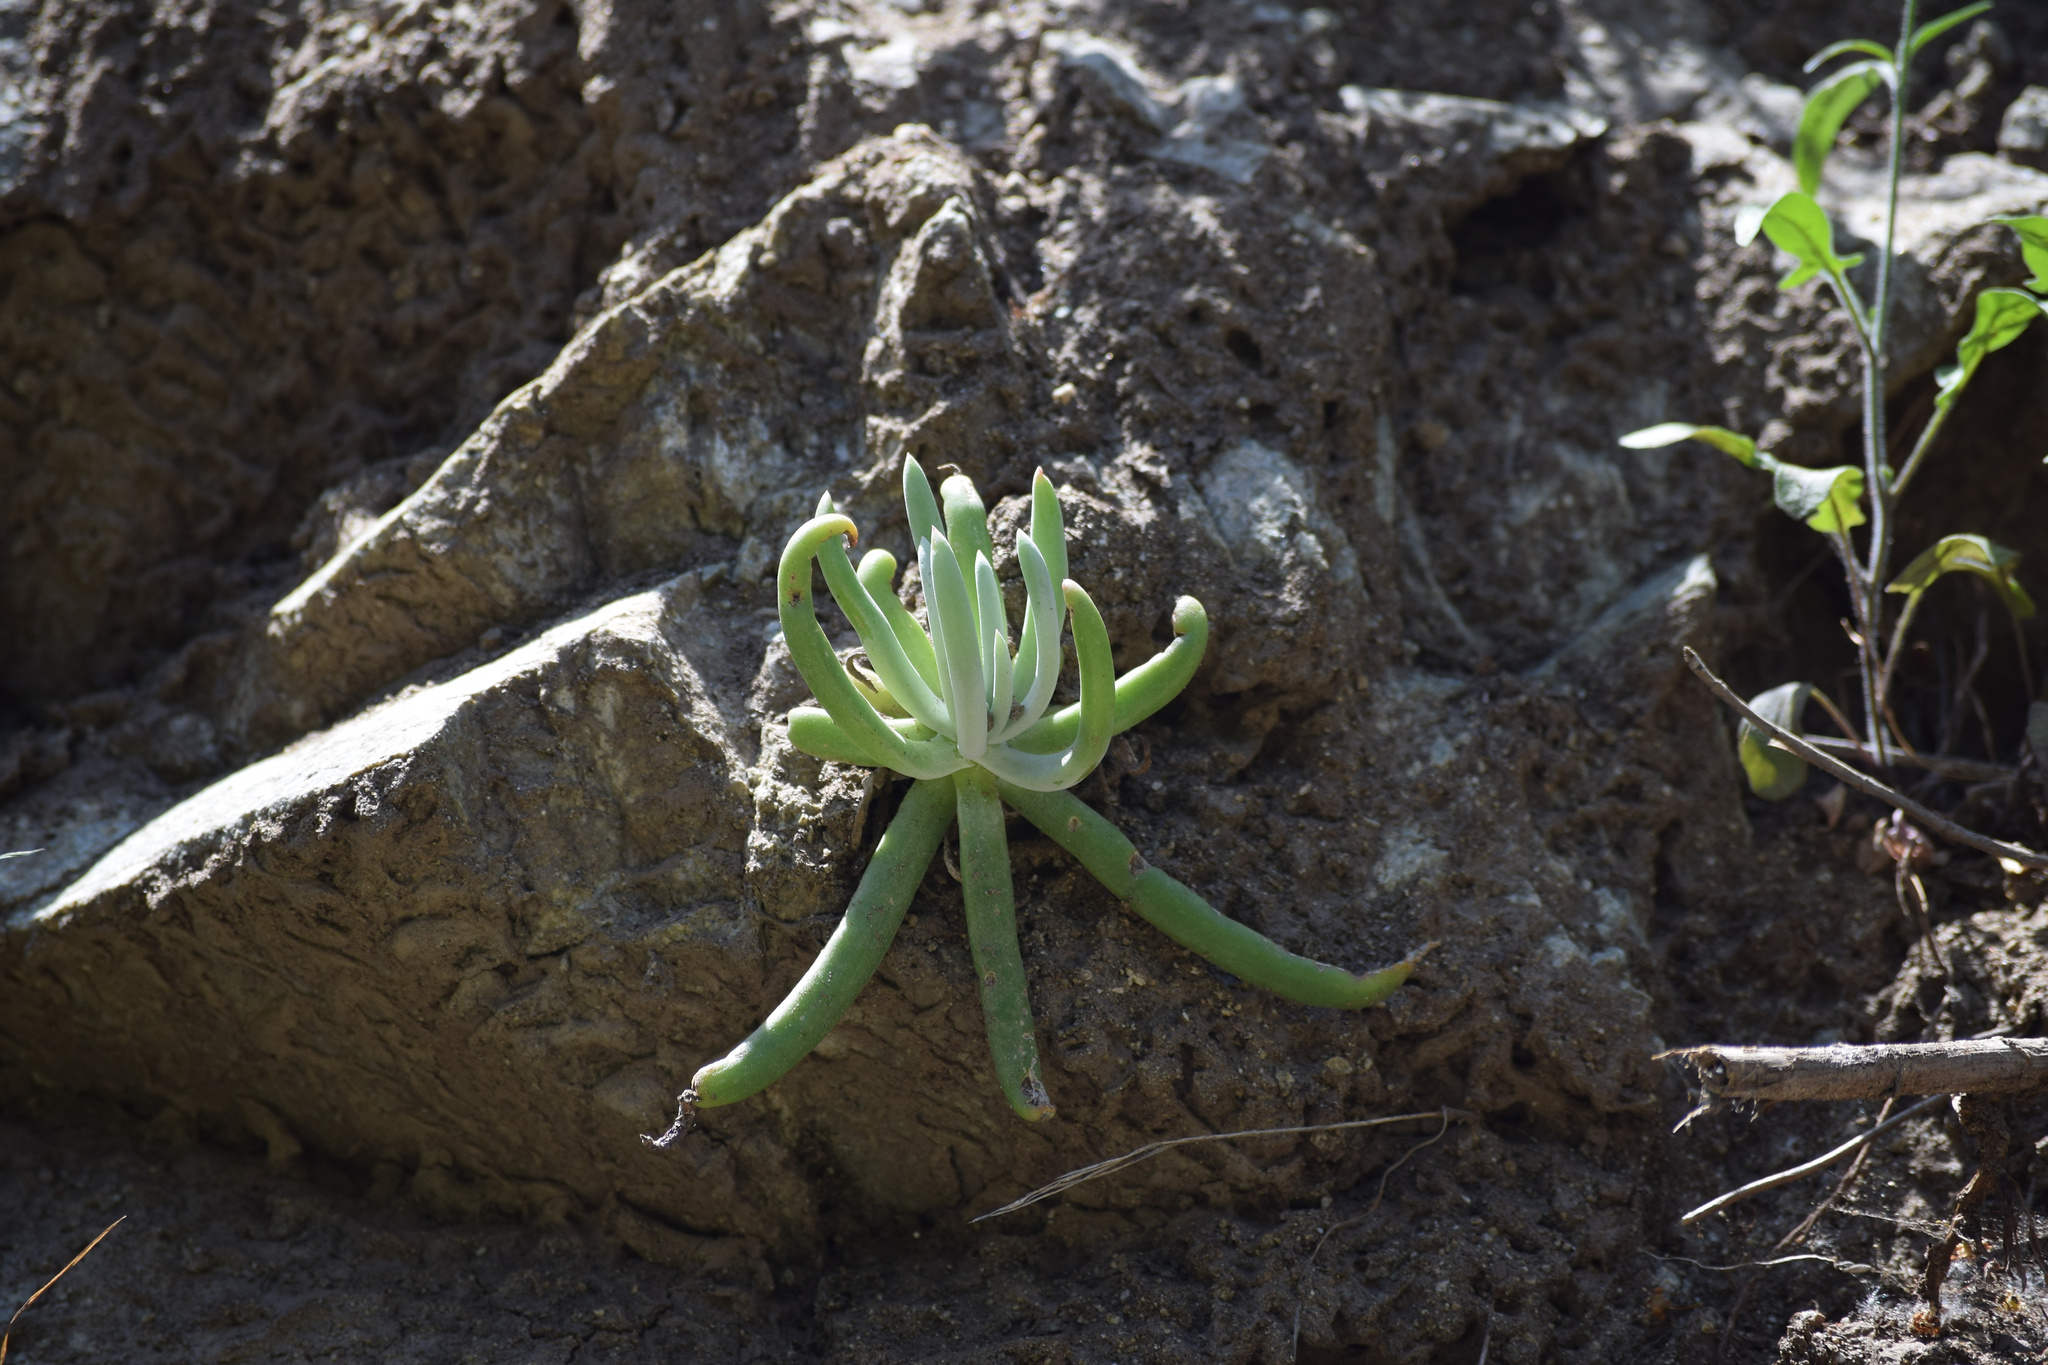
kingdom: Plantae
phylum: Tracheophyta
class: Magnoliopsida
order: Saxifragales
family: Crassulaceae
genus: Dudleya
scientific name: Dudleya densiflora
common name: San gabriel mountains dudleya
